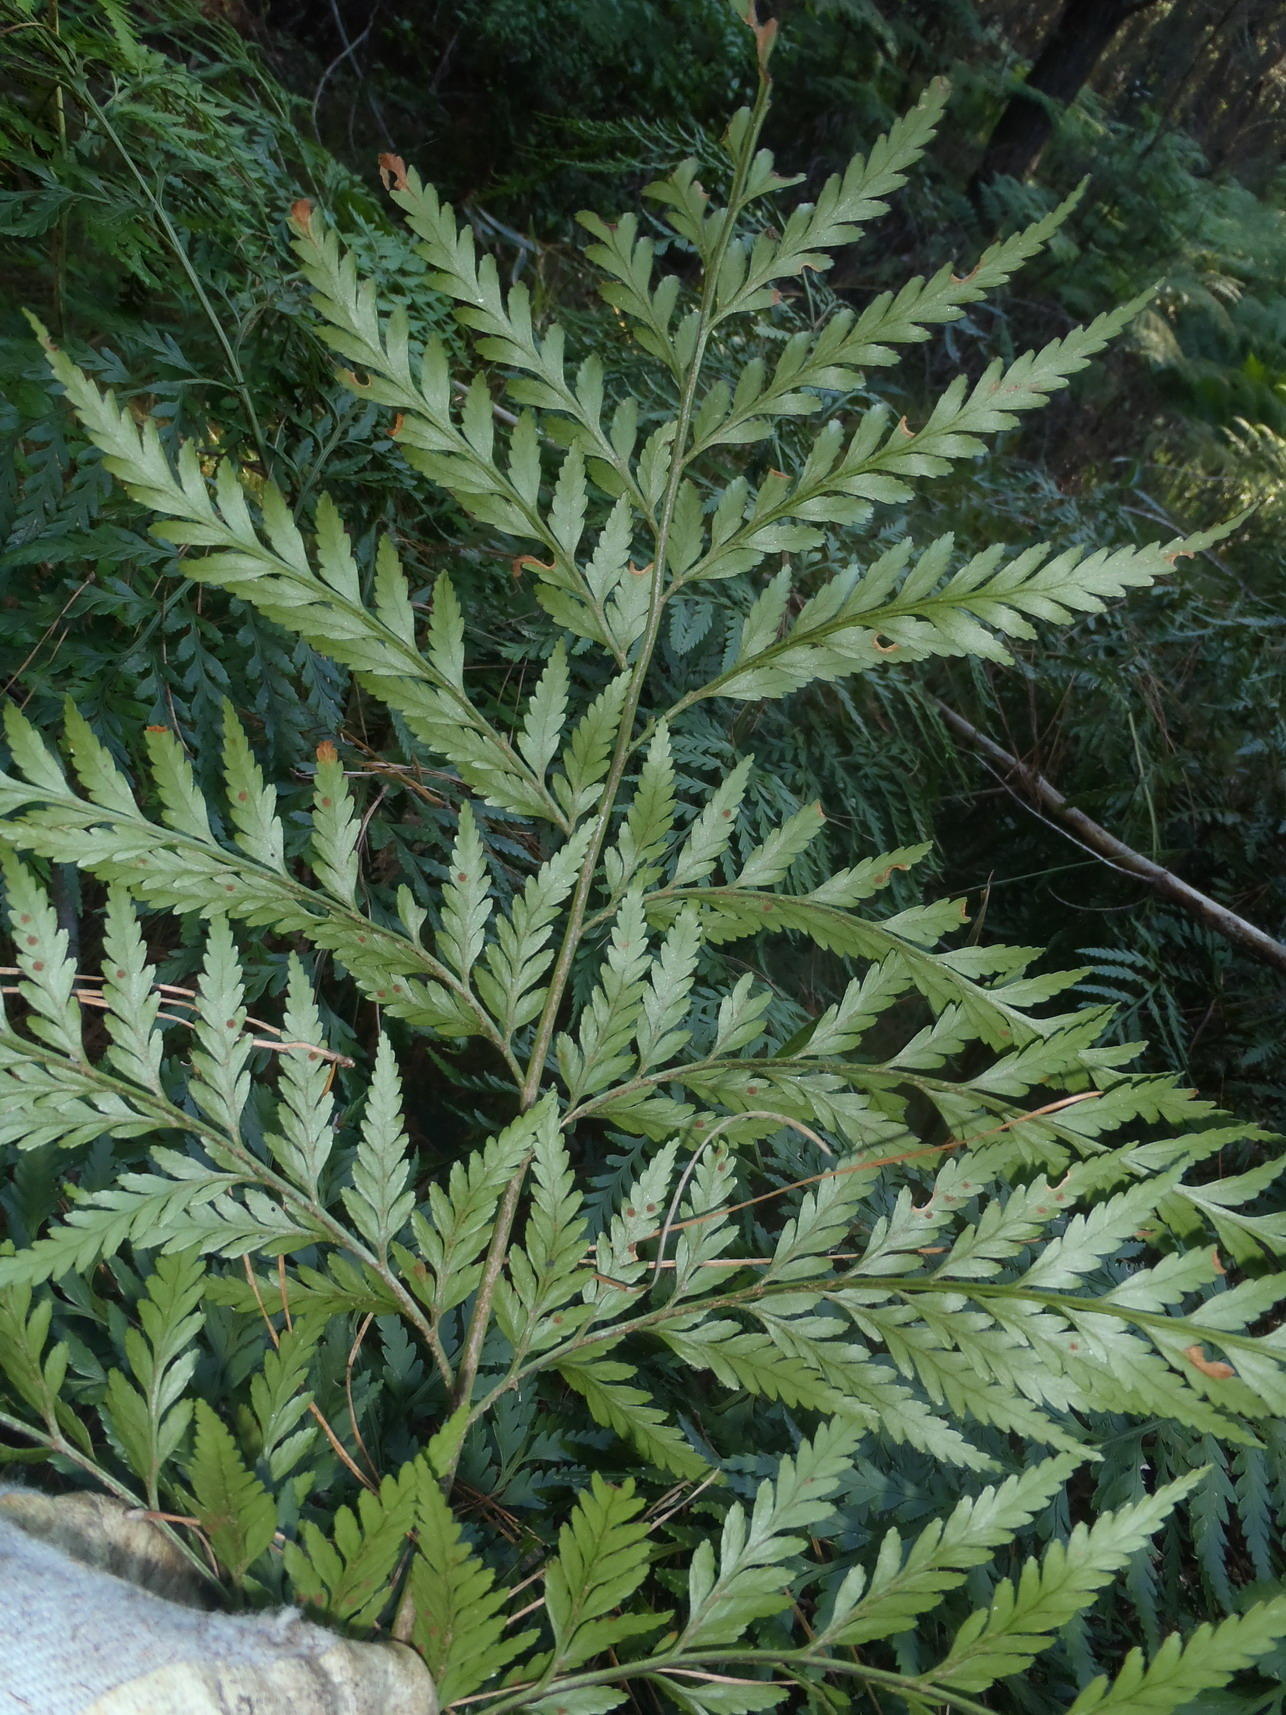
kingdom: Plantae
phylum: Tracheophyta
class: Polypodiopsida
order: Polypodiales
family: Dryopteridaceae
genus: Rumohra
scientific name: Rumohra adiantiformis
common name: Leather fern
